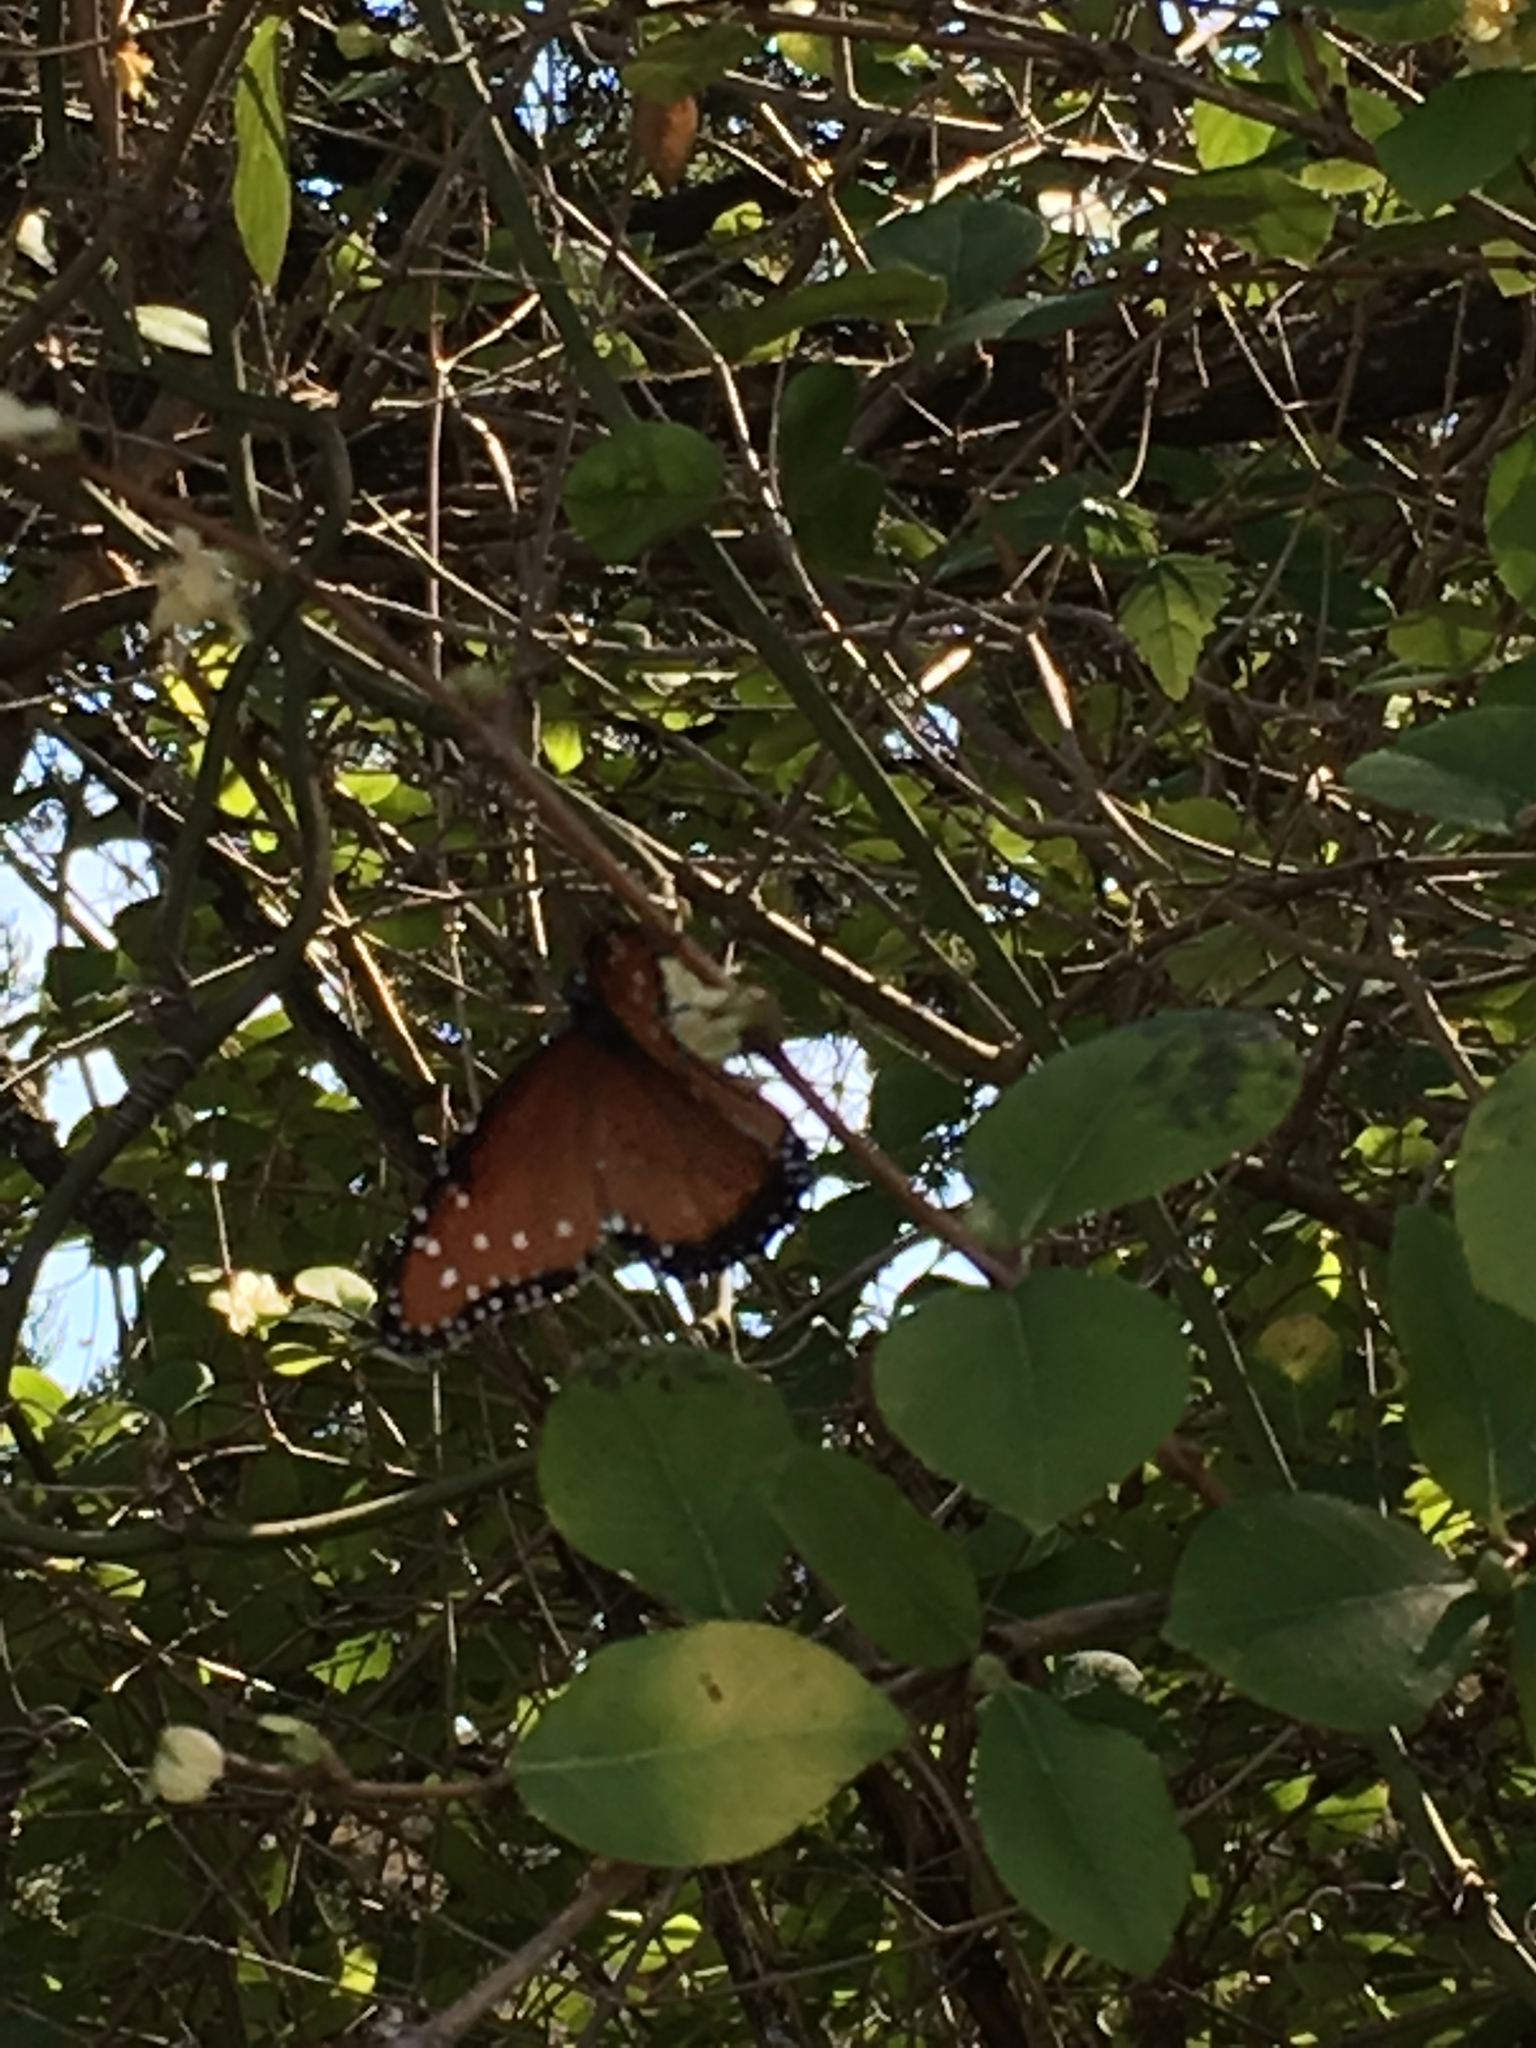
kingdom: Animalia
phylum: Arthropoda
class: Insecta
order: Lepidoptera
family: Nymphalidae
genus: Danaus
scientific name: Danaus gilippus
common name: Queen
